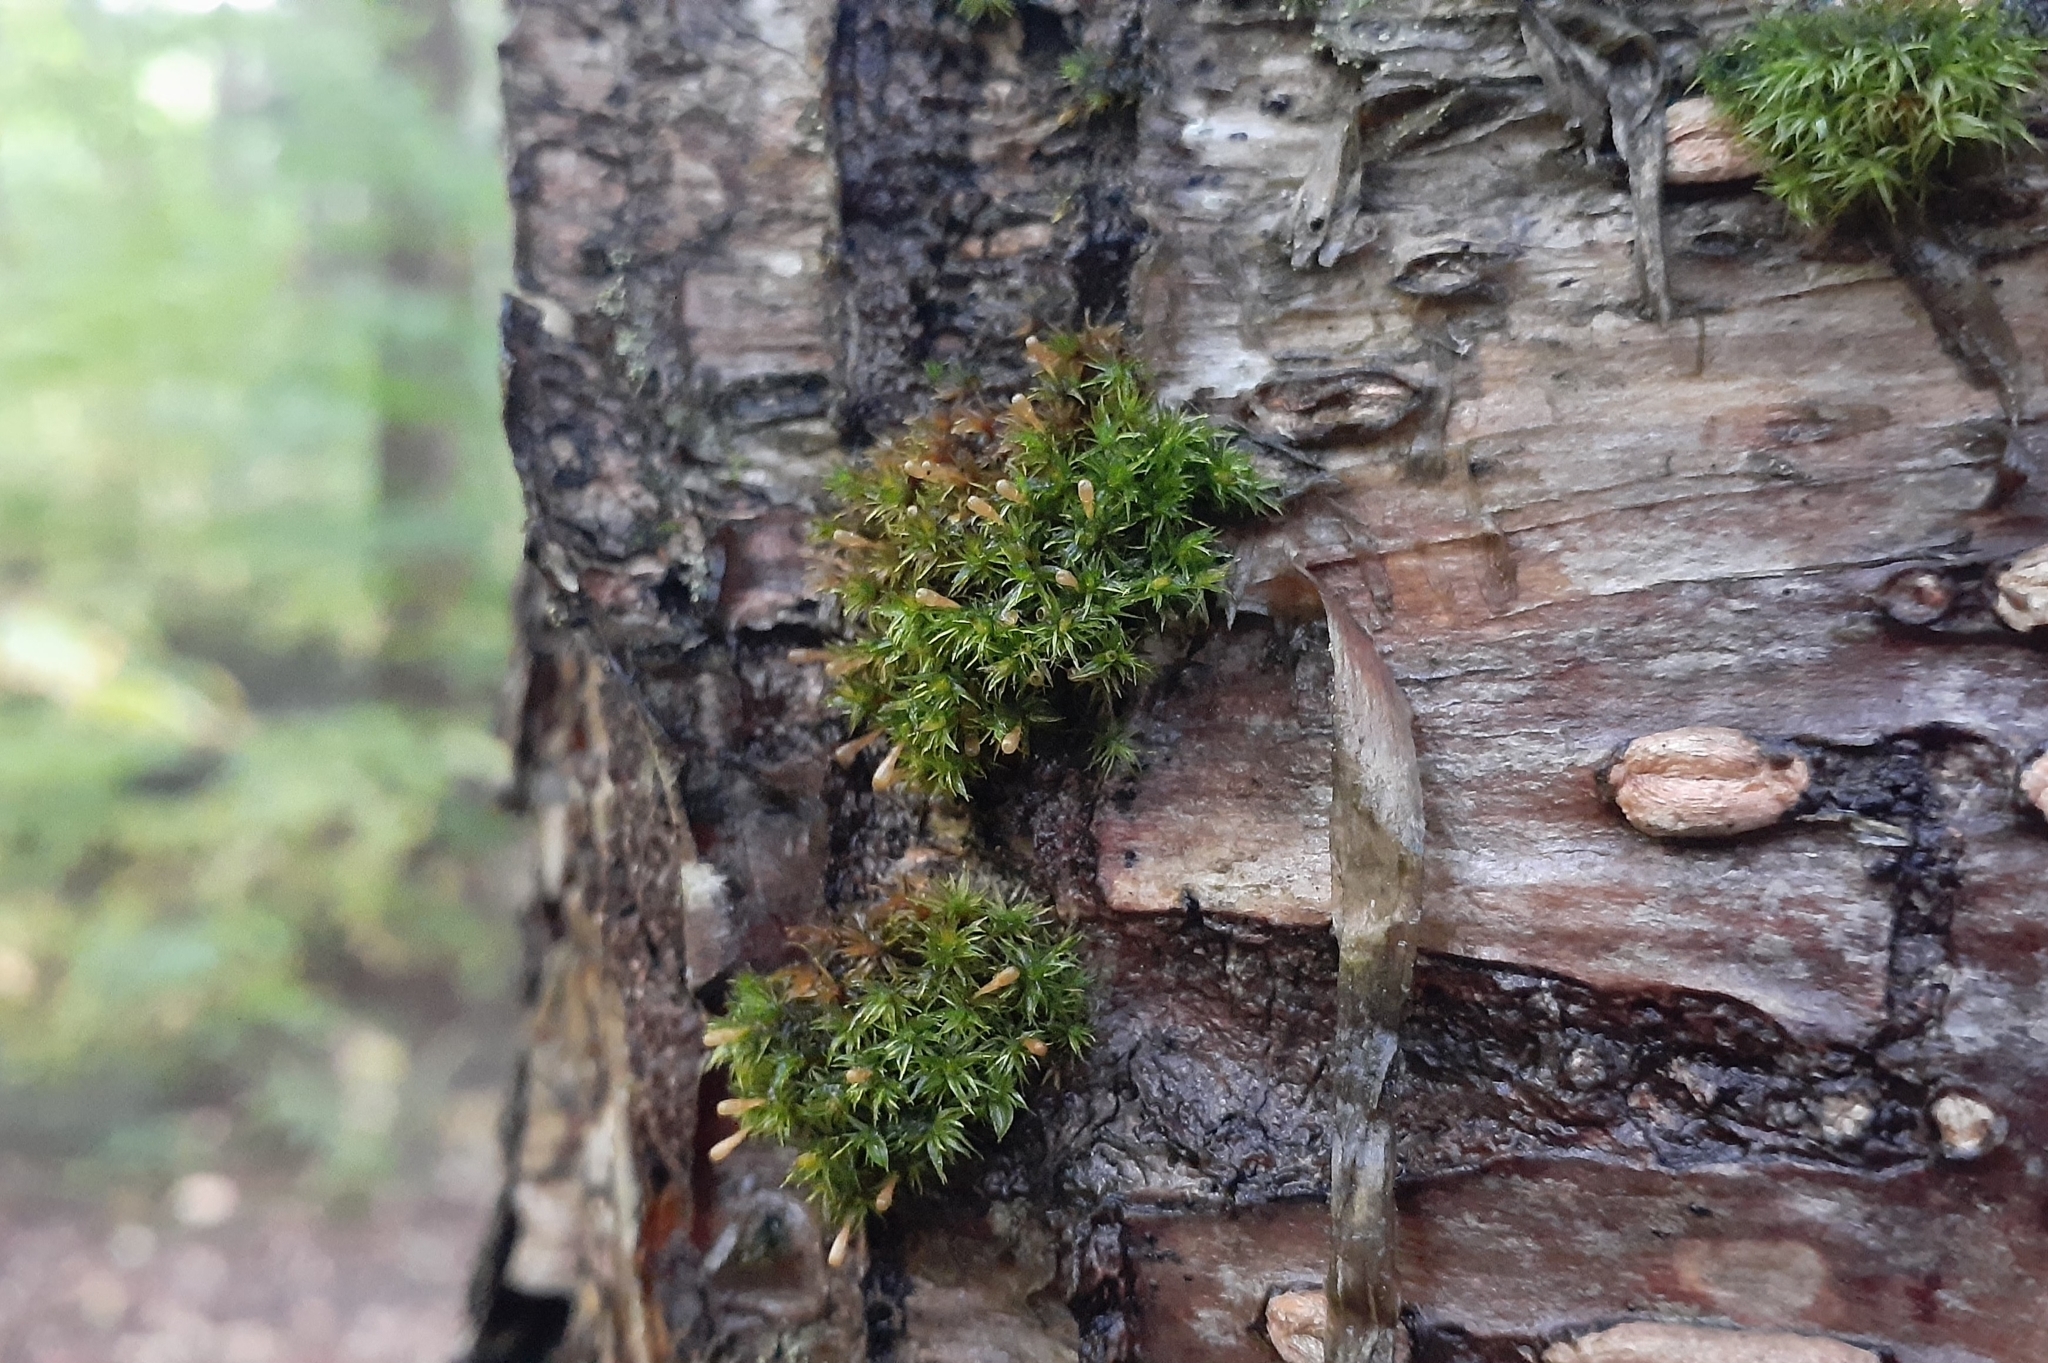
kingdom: Plantae
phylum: Bryophyta
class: Bryopsida
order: Orthotrichales
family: Orthotrichaceae
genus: Ulota
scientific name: Ulota coarctata
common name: Club pincushion moss
